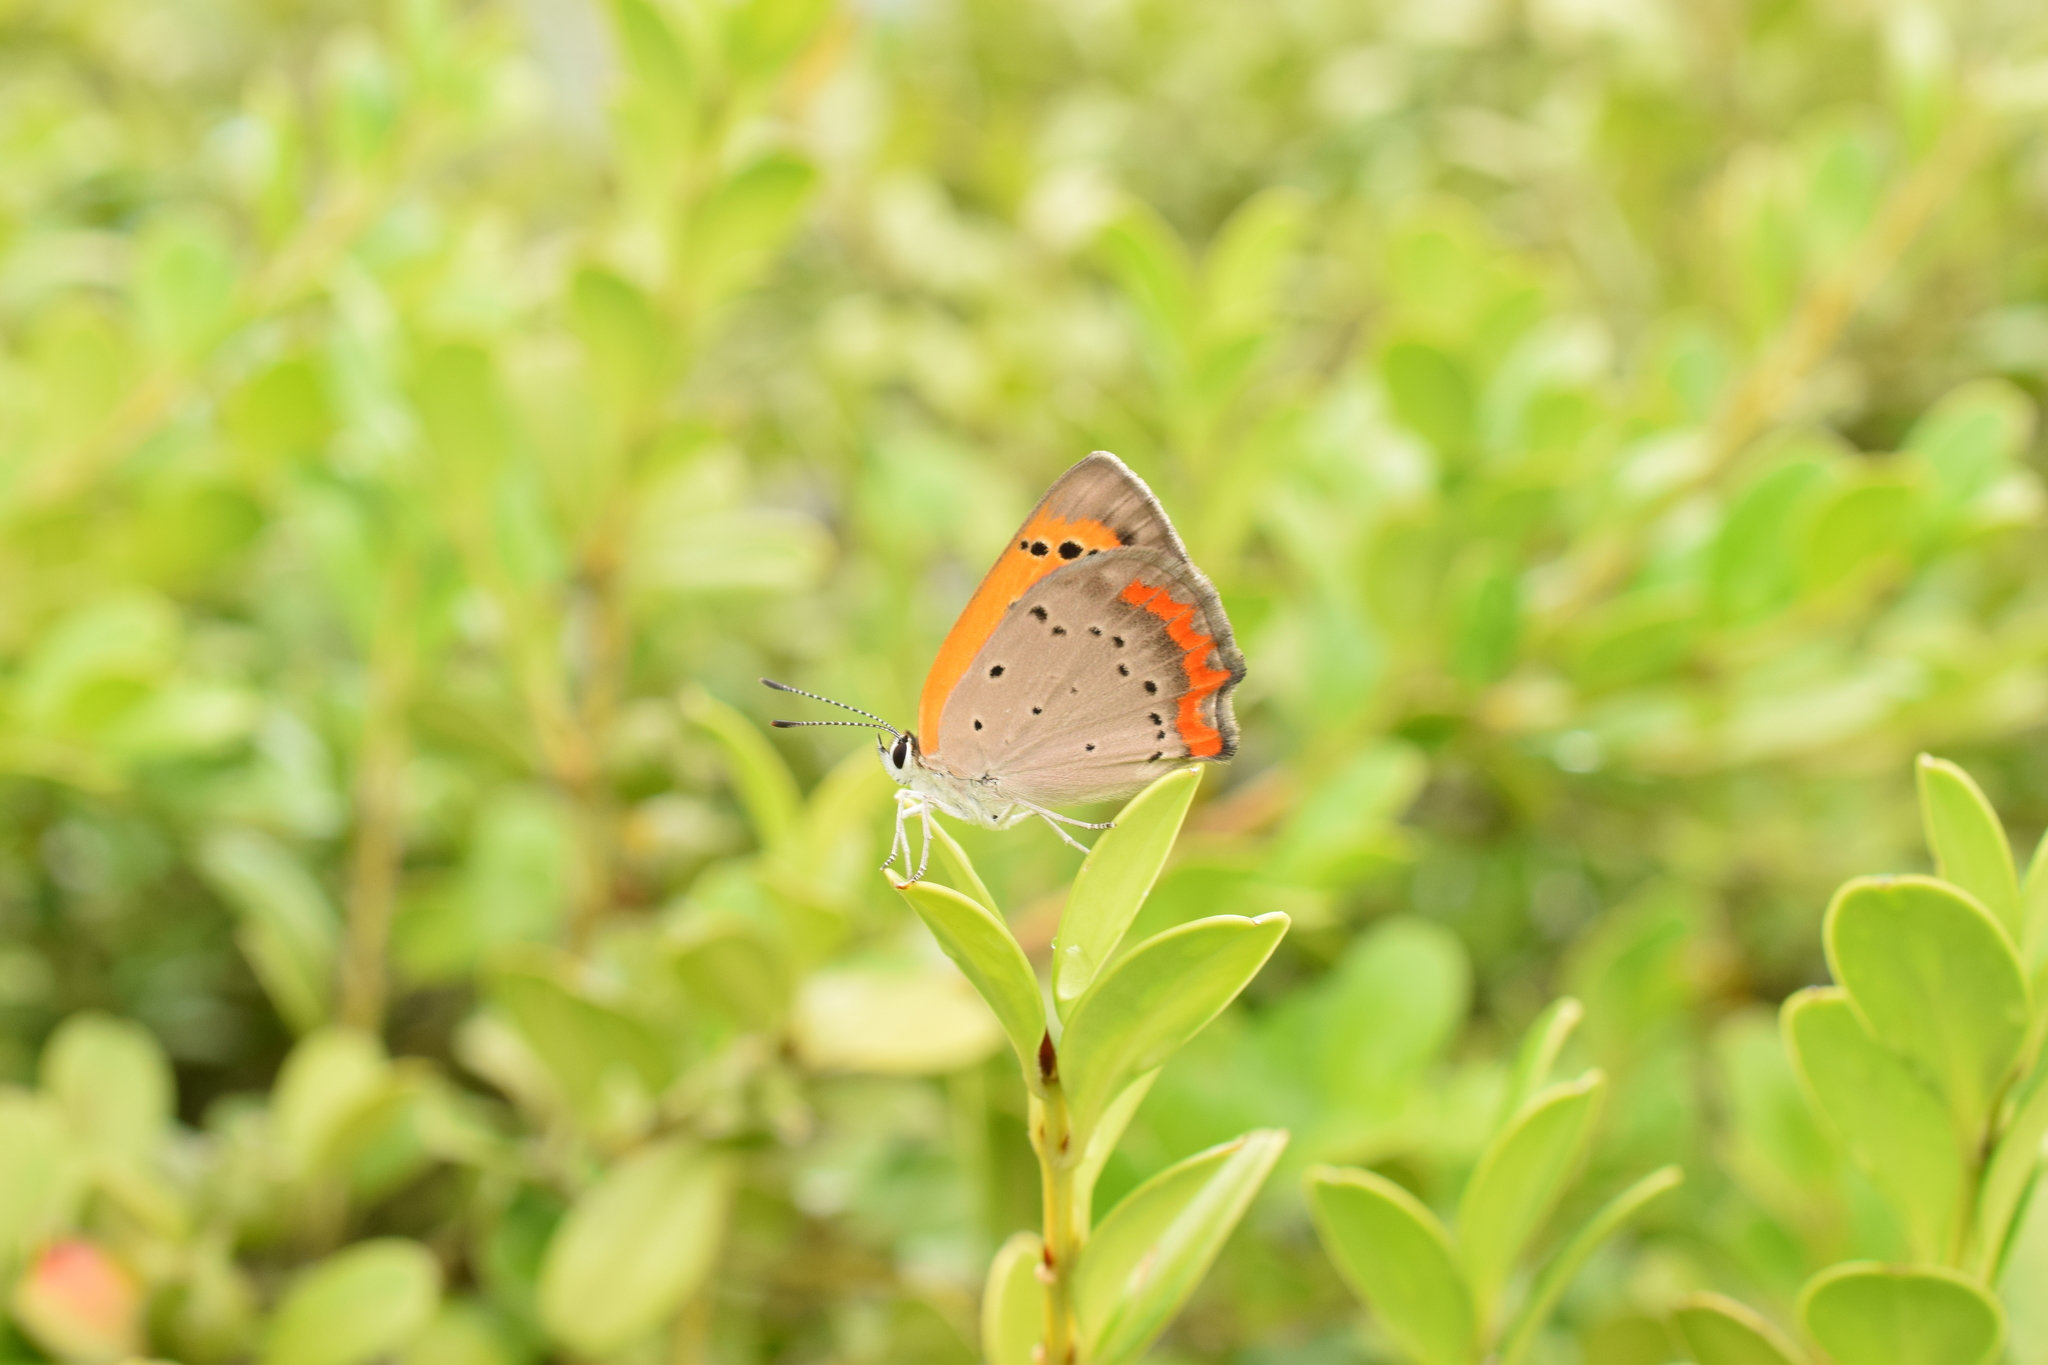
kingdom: Animalia
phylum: Arthropoda
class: Insecta
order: Lepidoptera
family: Lycaenidae
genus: Lycaena
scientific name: Lycaena phlaeas
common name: Small copper
